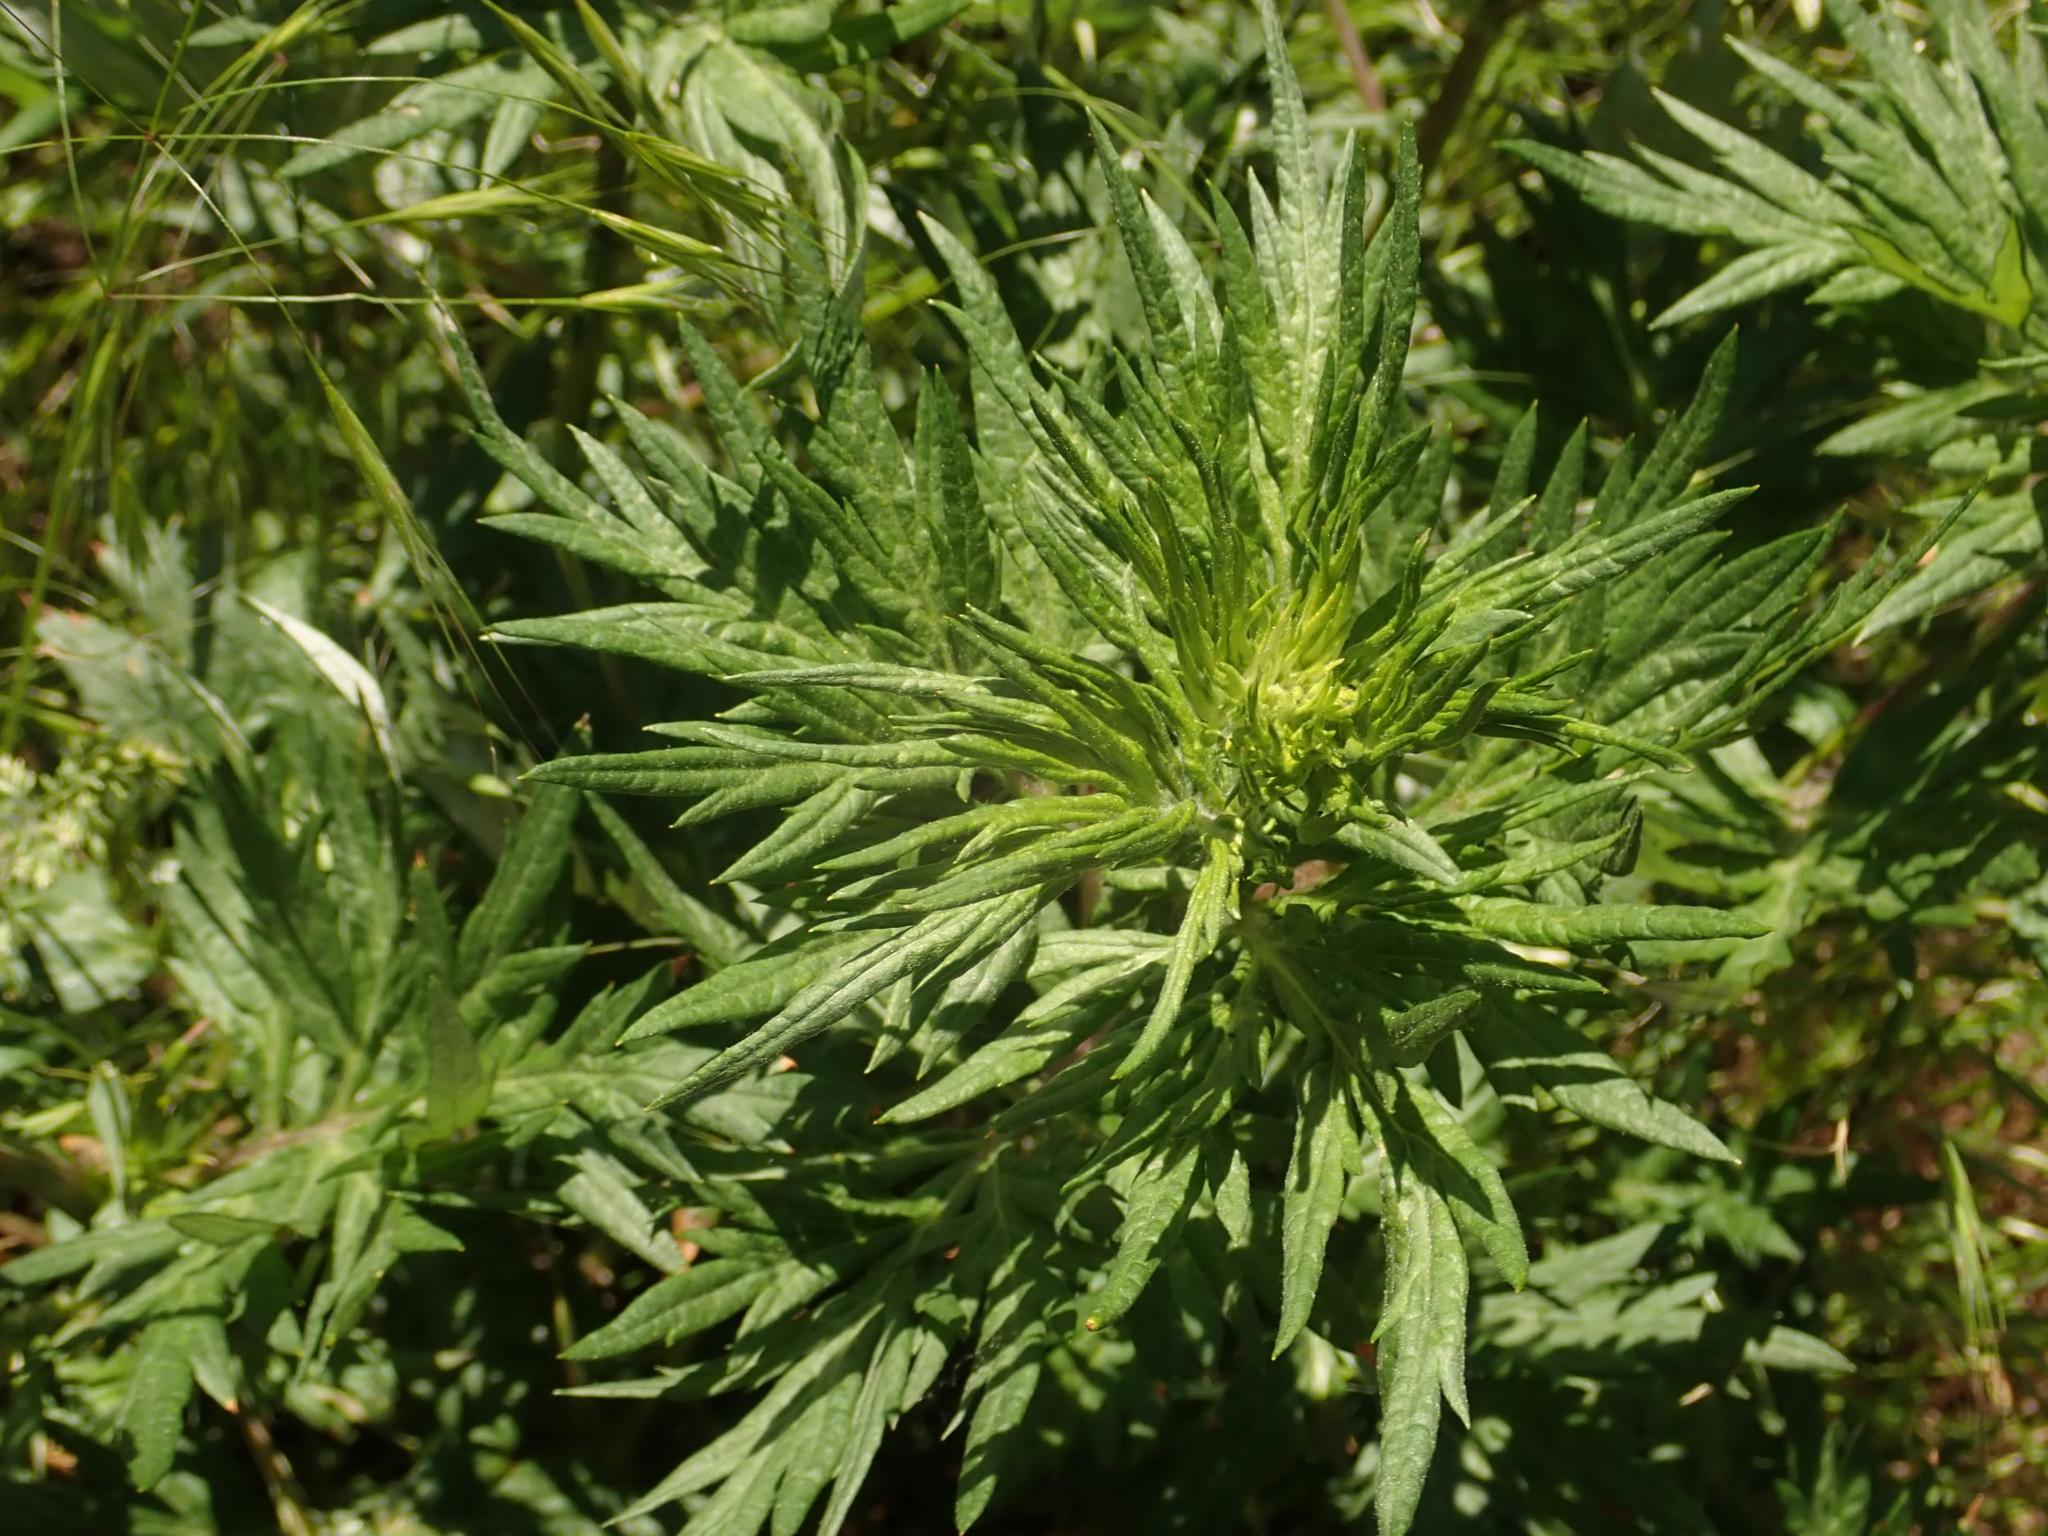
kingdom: Plantae
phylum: Tracheophyta
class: Magnoliopsida
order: Asterales
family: Asteraceae
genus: Artemisia
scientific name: Artemisia vulgaris
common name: Mugwort
